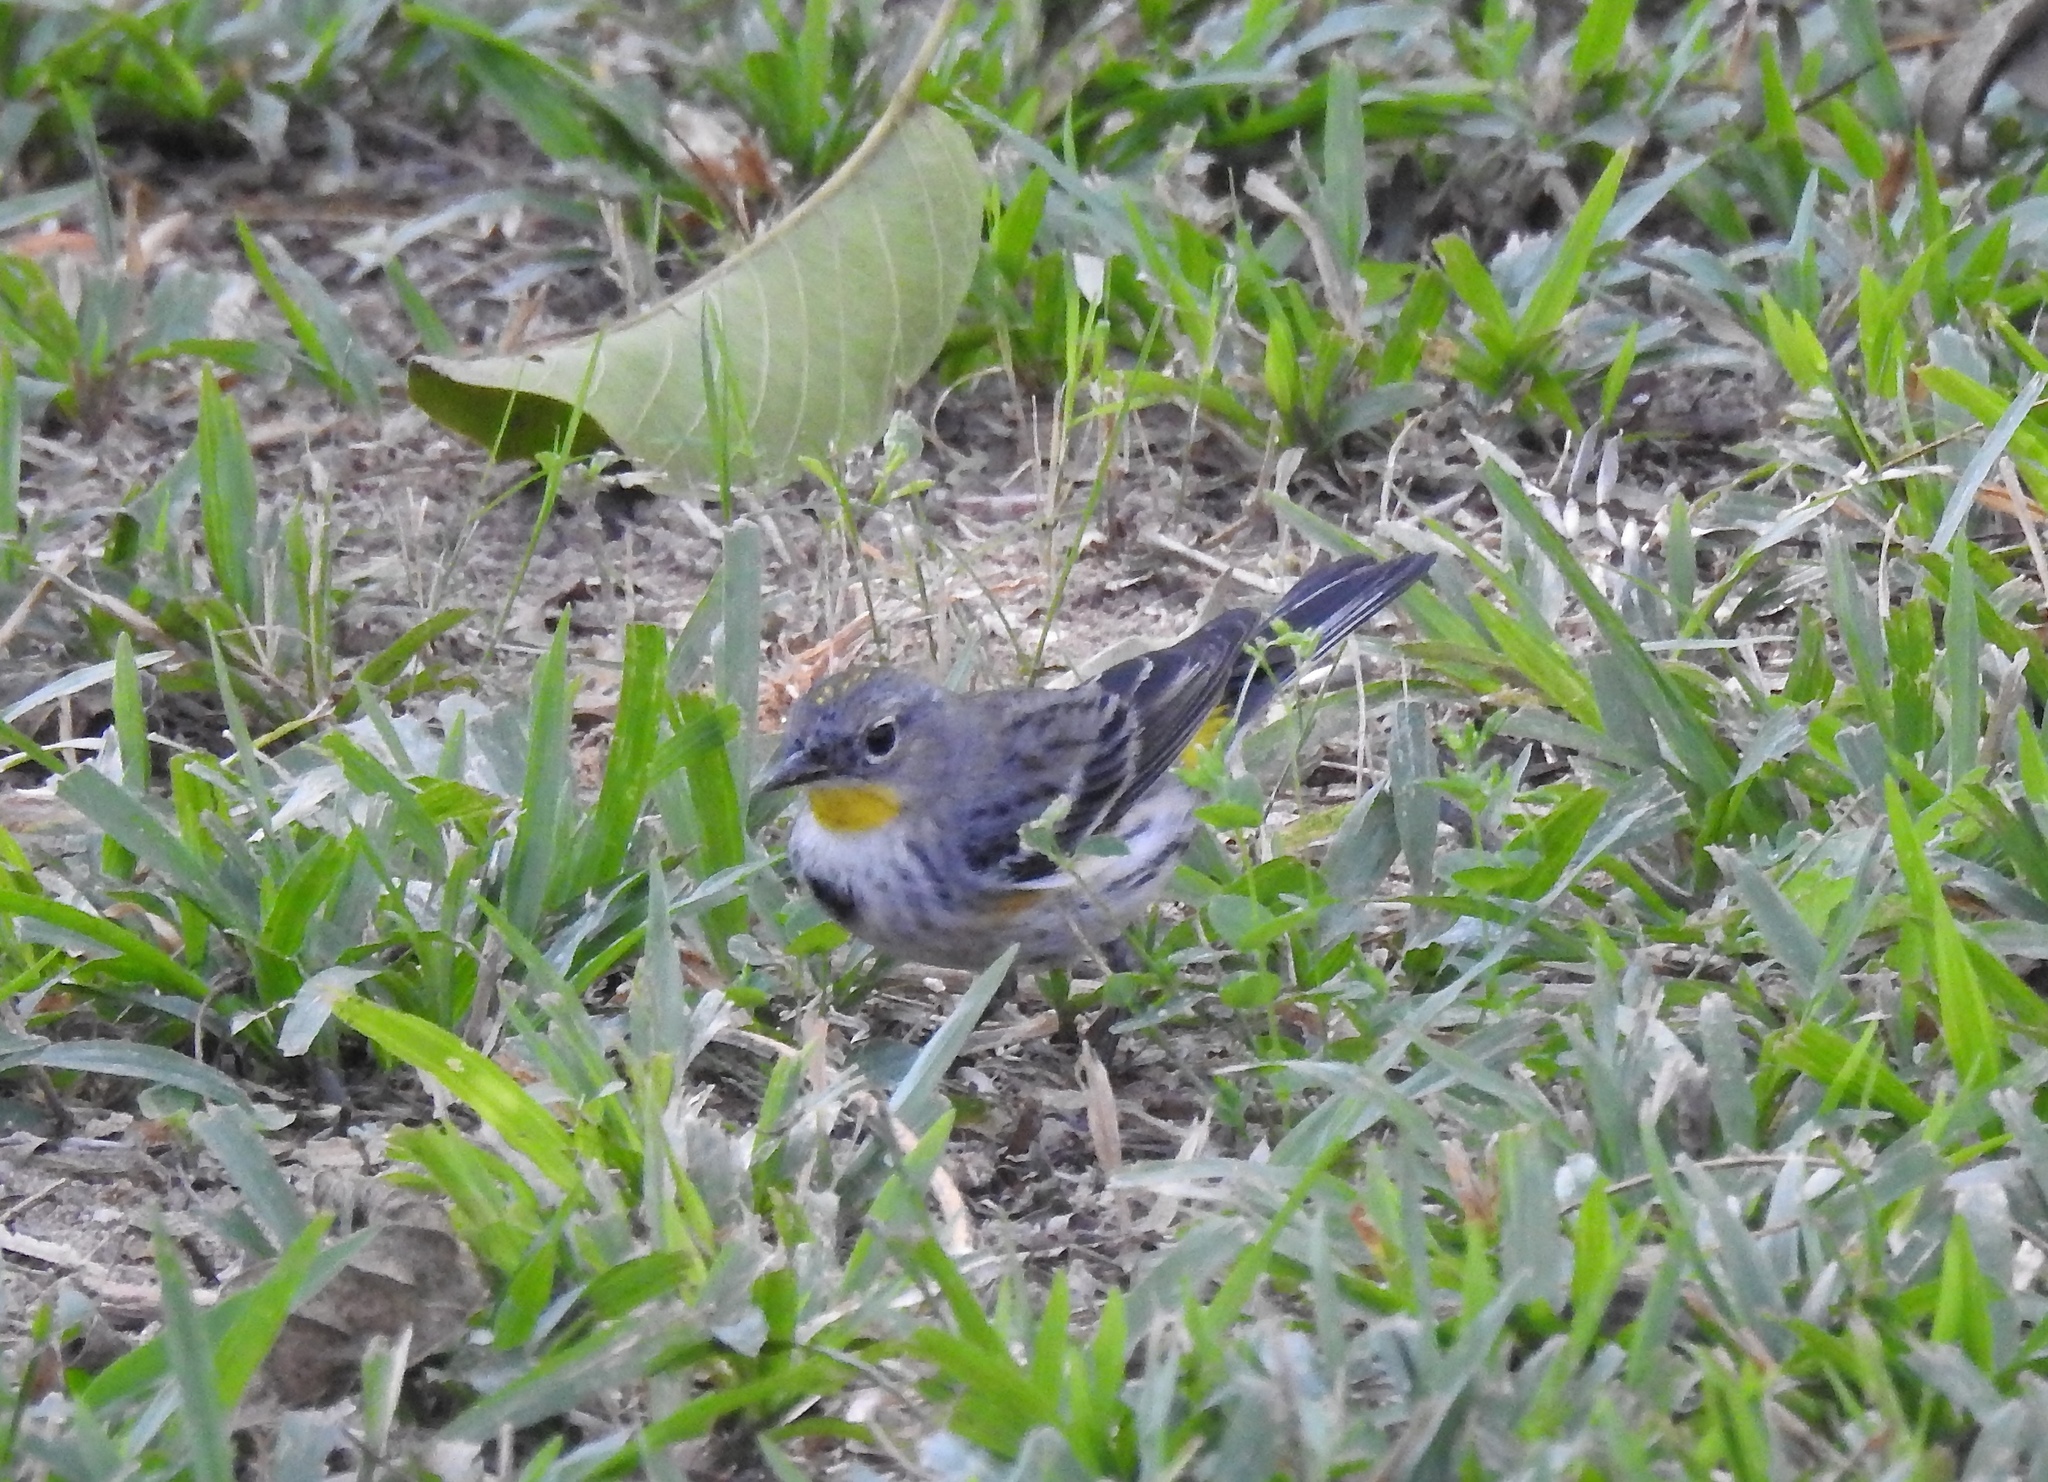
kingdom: Animalia
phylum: Chordata
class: Aves
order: Passeriformes
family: Parulidae
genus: Setophaga
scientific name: Setophaga auduboni
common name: Audubon's warbler
